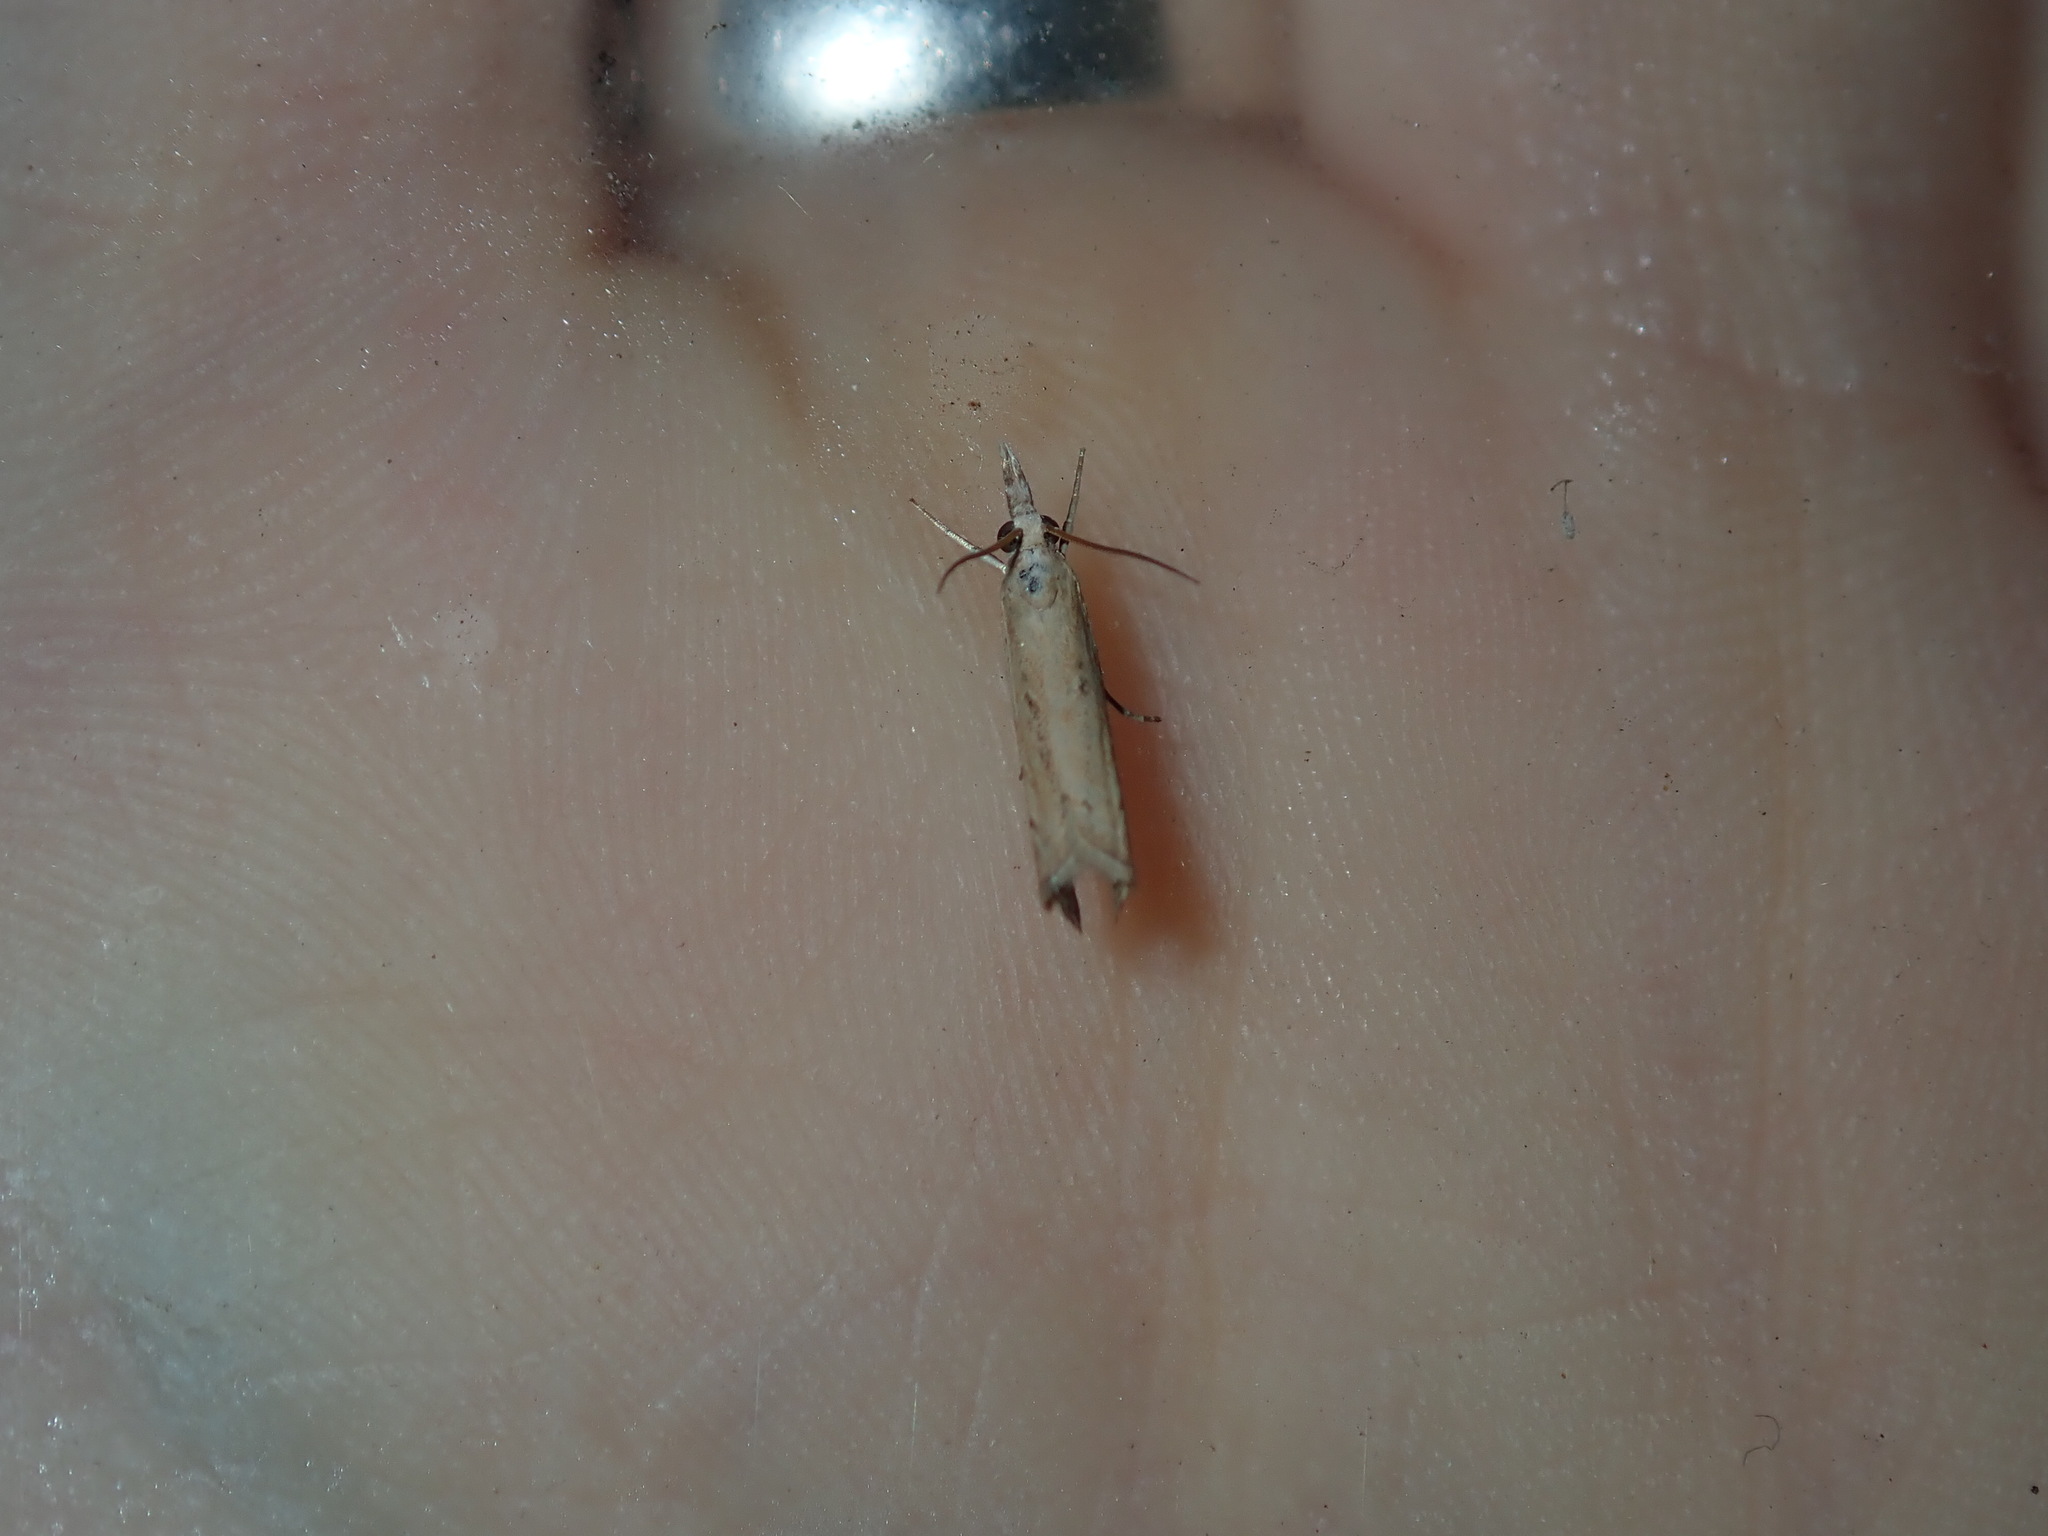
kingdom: Animalia
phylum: Arthropoda
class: Insecta
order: Lepidoptera
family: Crambidae
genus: Culladia
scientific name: Culladia cuneiferellus
